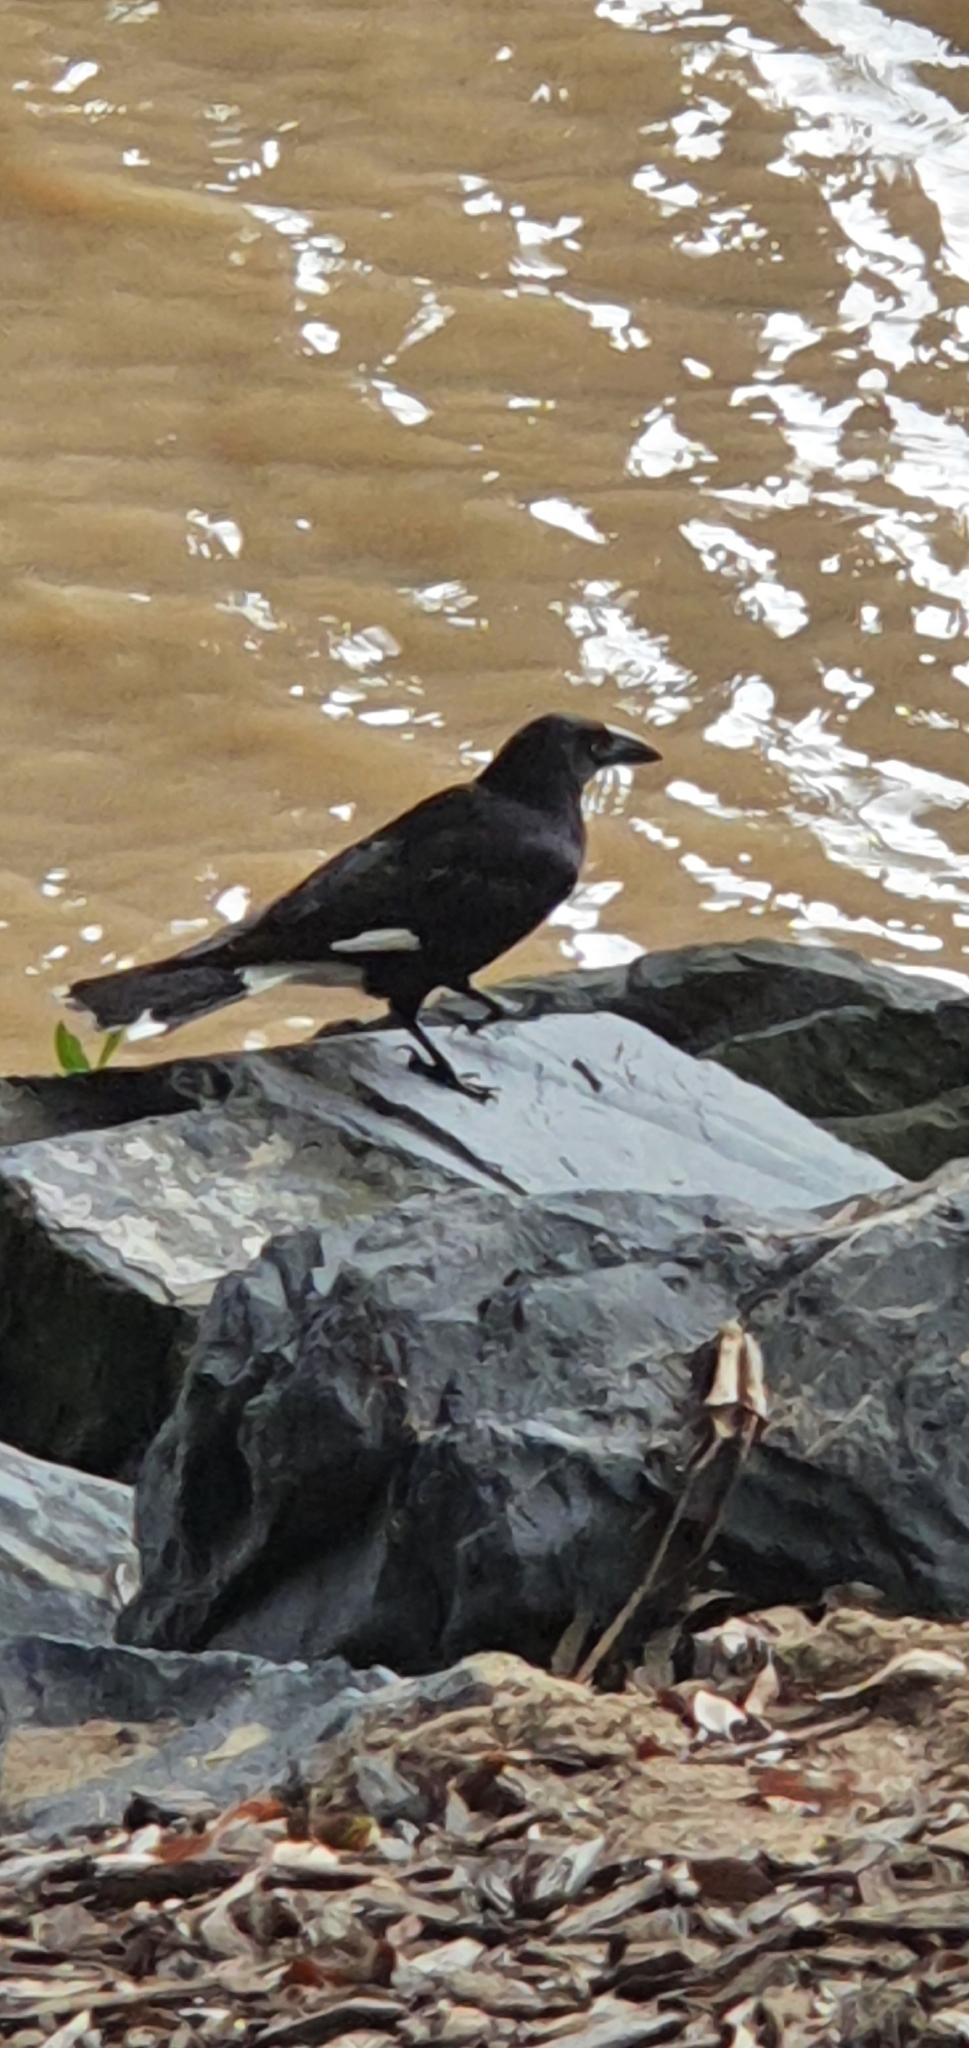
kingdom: Animalia
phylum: Chordata
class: Aves
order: Passeriformes
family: Cracticidae
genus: Strepera
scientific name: Strepera graculina
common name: Pied currawong
